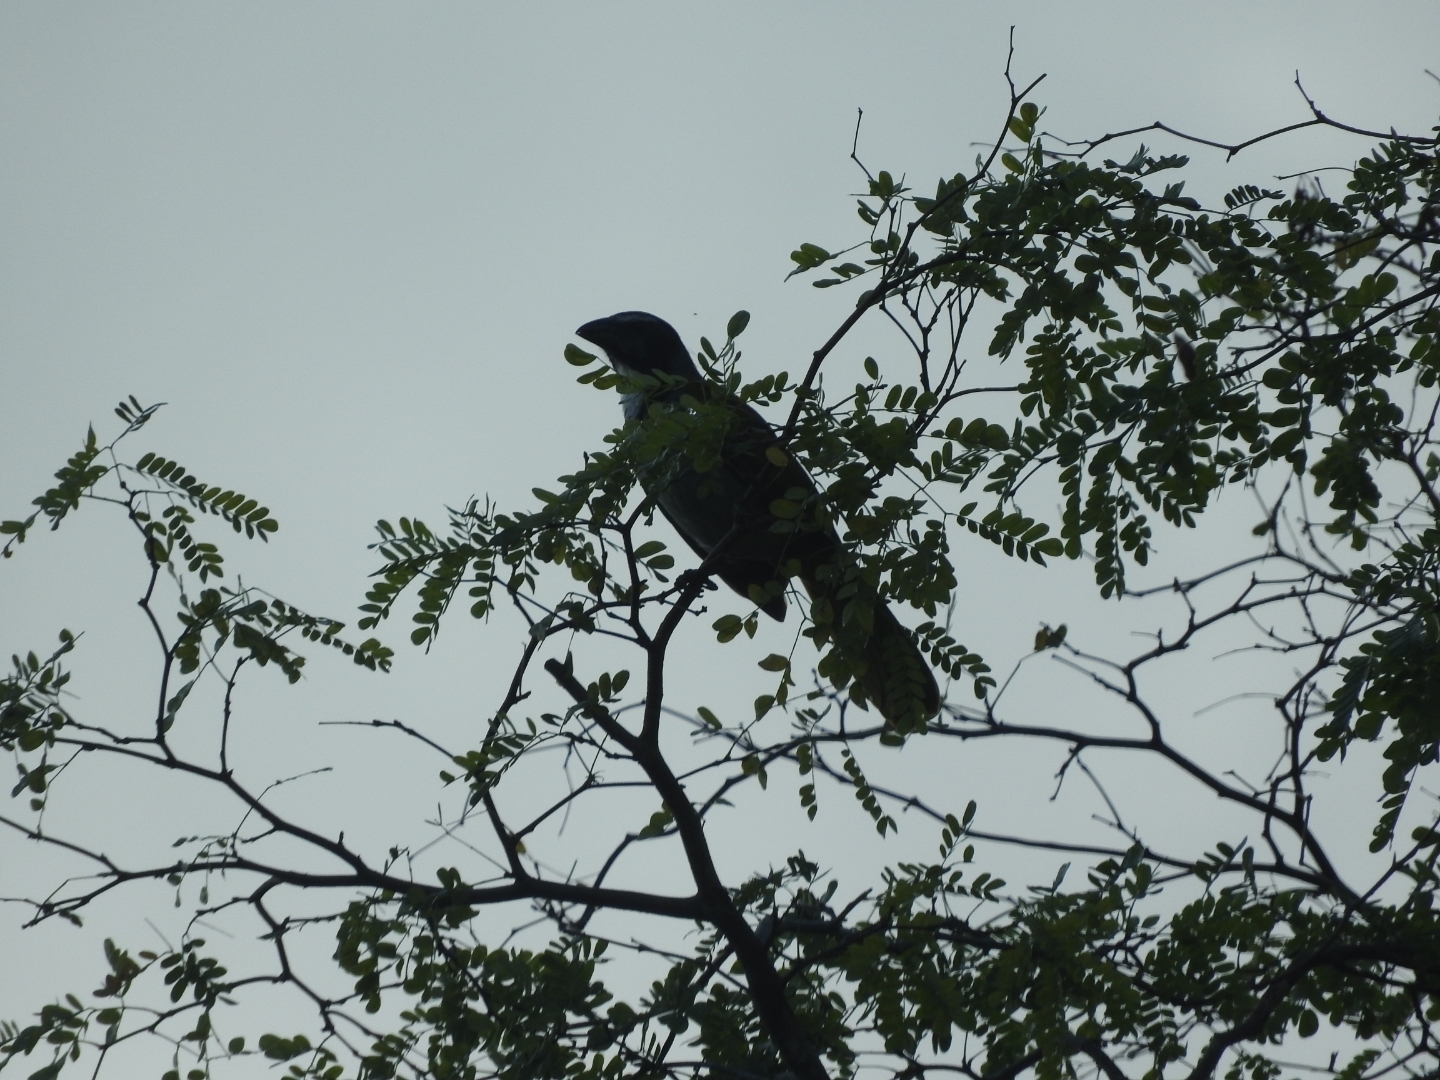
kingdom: Animalia
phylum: Chordata
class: Aves
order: Passeriformes
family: Thraupidae
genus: Saltator
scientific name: Saltator atriceps
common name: Black-headed saltator
